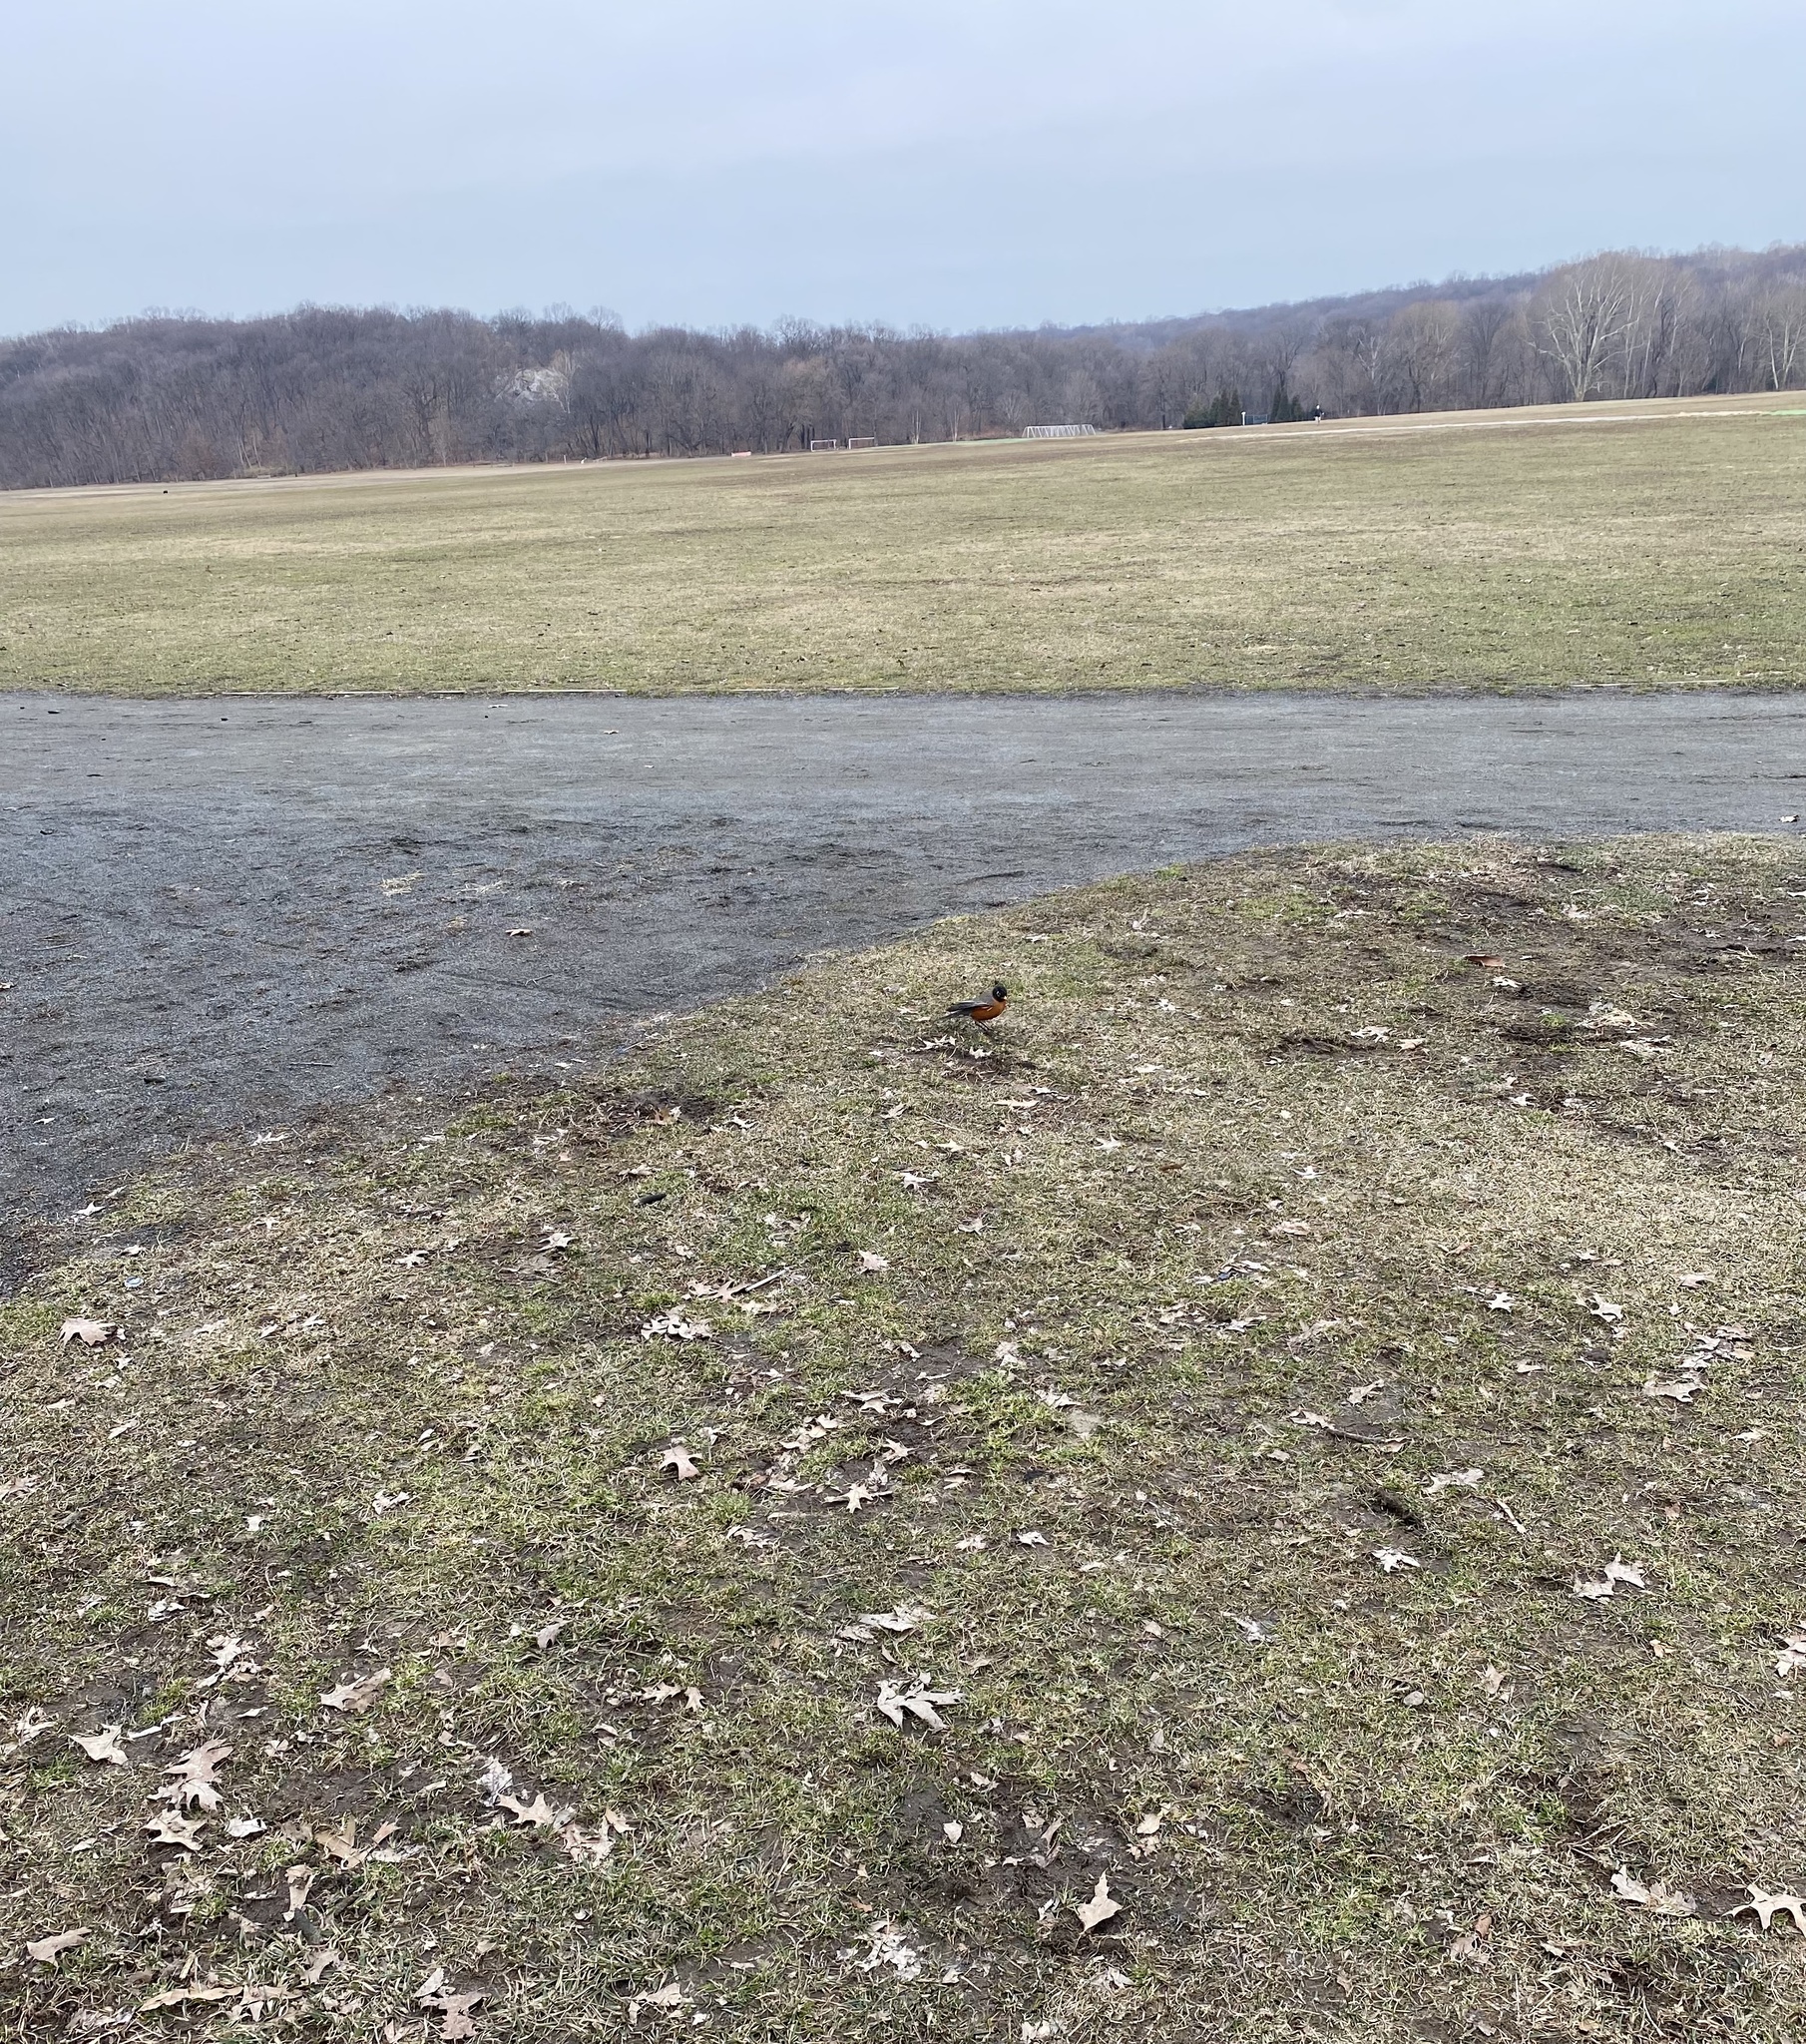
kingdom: Animalia
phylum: Chordata
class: Aves
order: Passeriformes
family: Turdidae
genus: Turdus
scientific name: Turdus migratorius
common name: American robin
